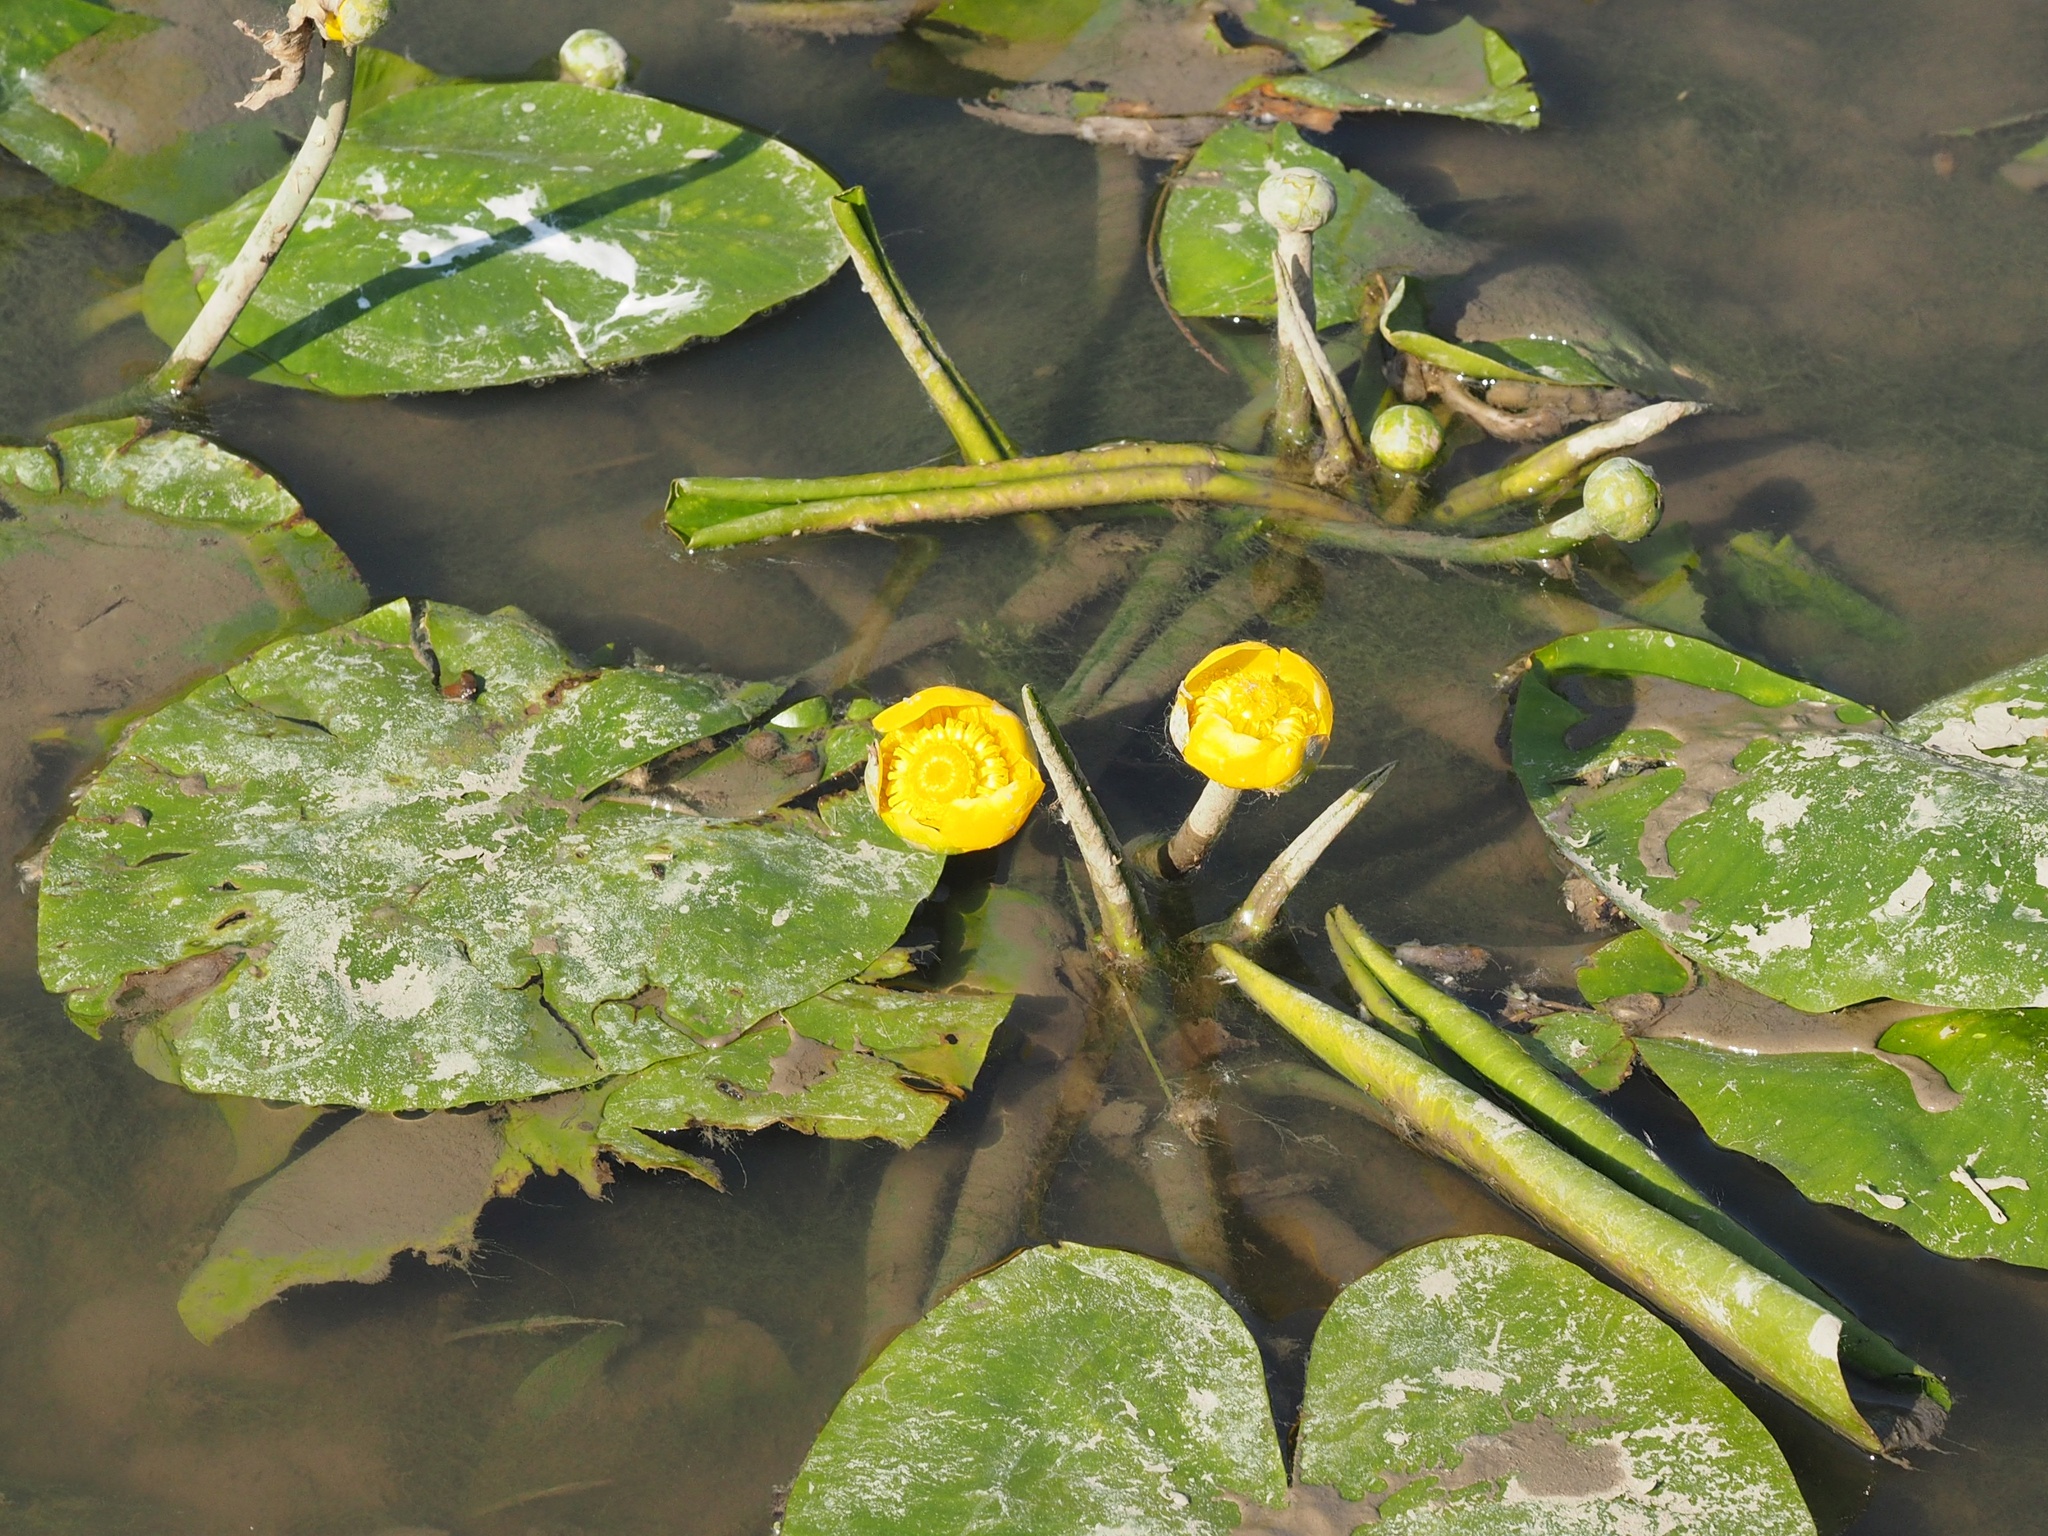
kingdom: Plantae
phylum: Tracheophyta
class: Magnoliopsida
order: Nymphaeales
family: Nymphaeaceae
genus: Nuphar
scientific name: Nuphar lutea
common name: Yellow water-lily
